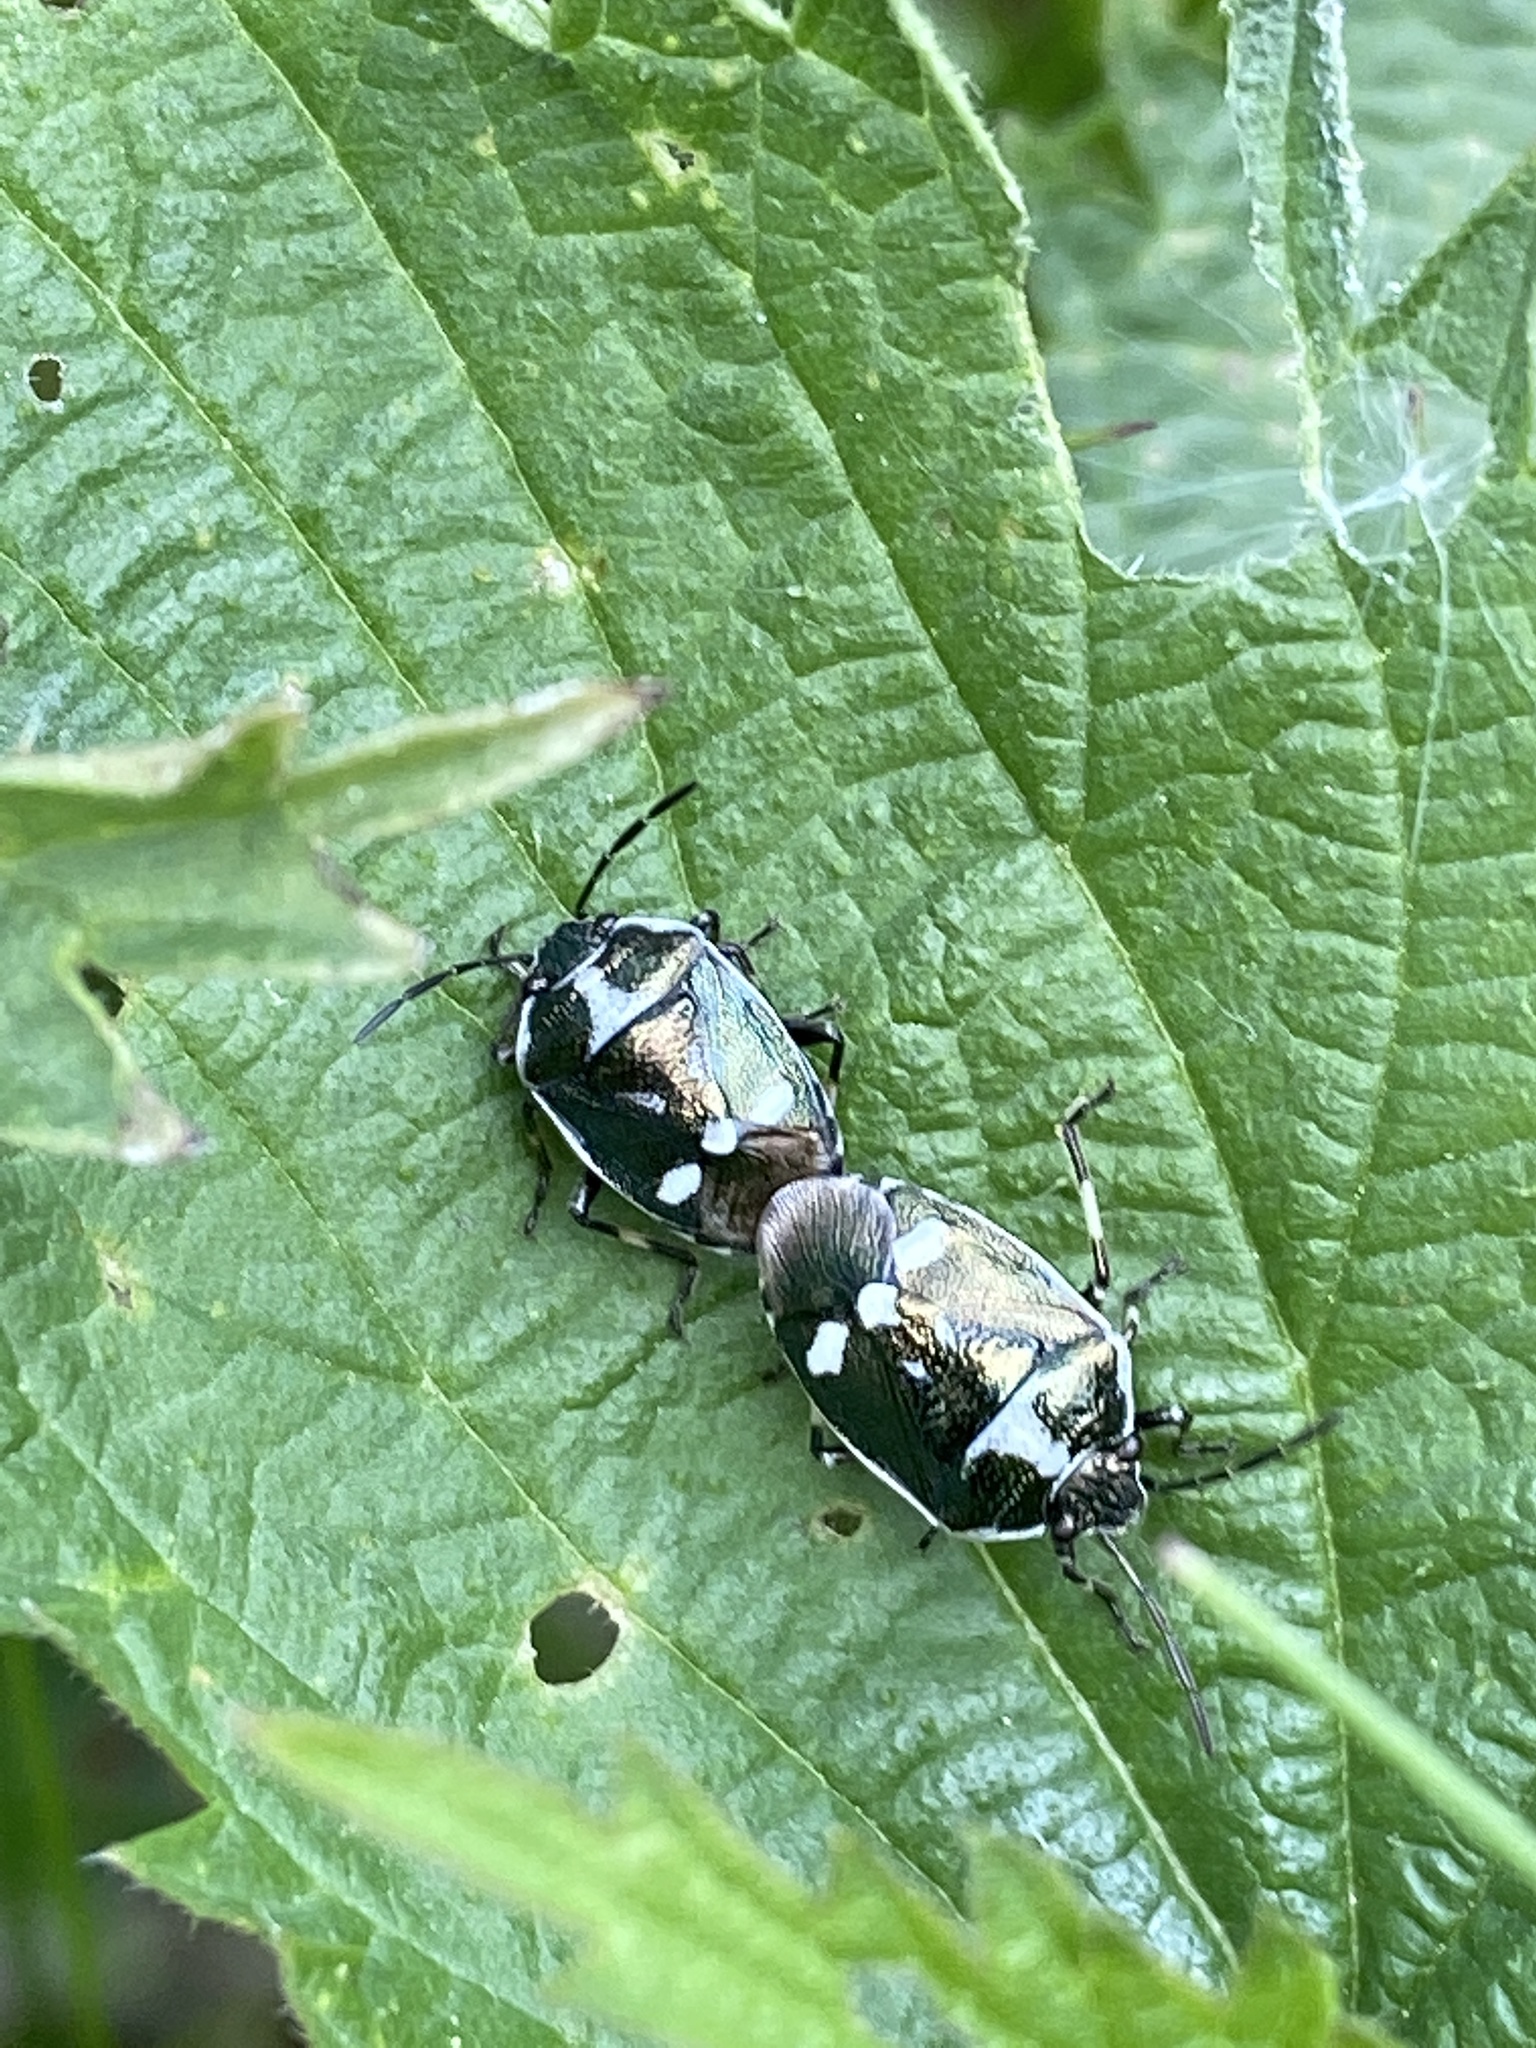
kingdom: Animalia
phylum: Arthropoda
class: Insecta
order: Hemiptera
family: Pentatomidae
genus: Eurydema
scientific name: Eurydema oleracea
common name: Cabbage bug
